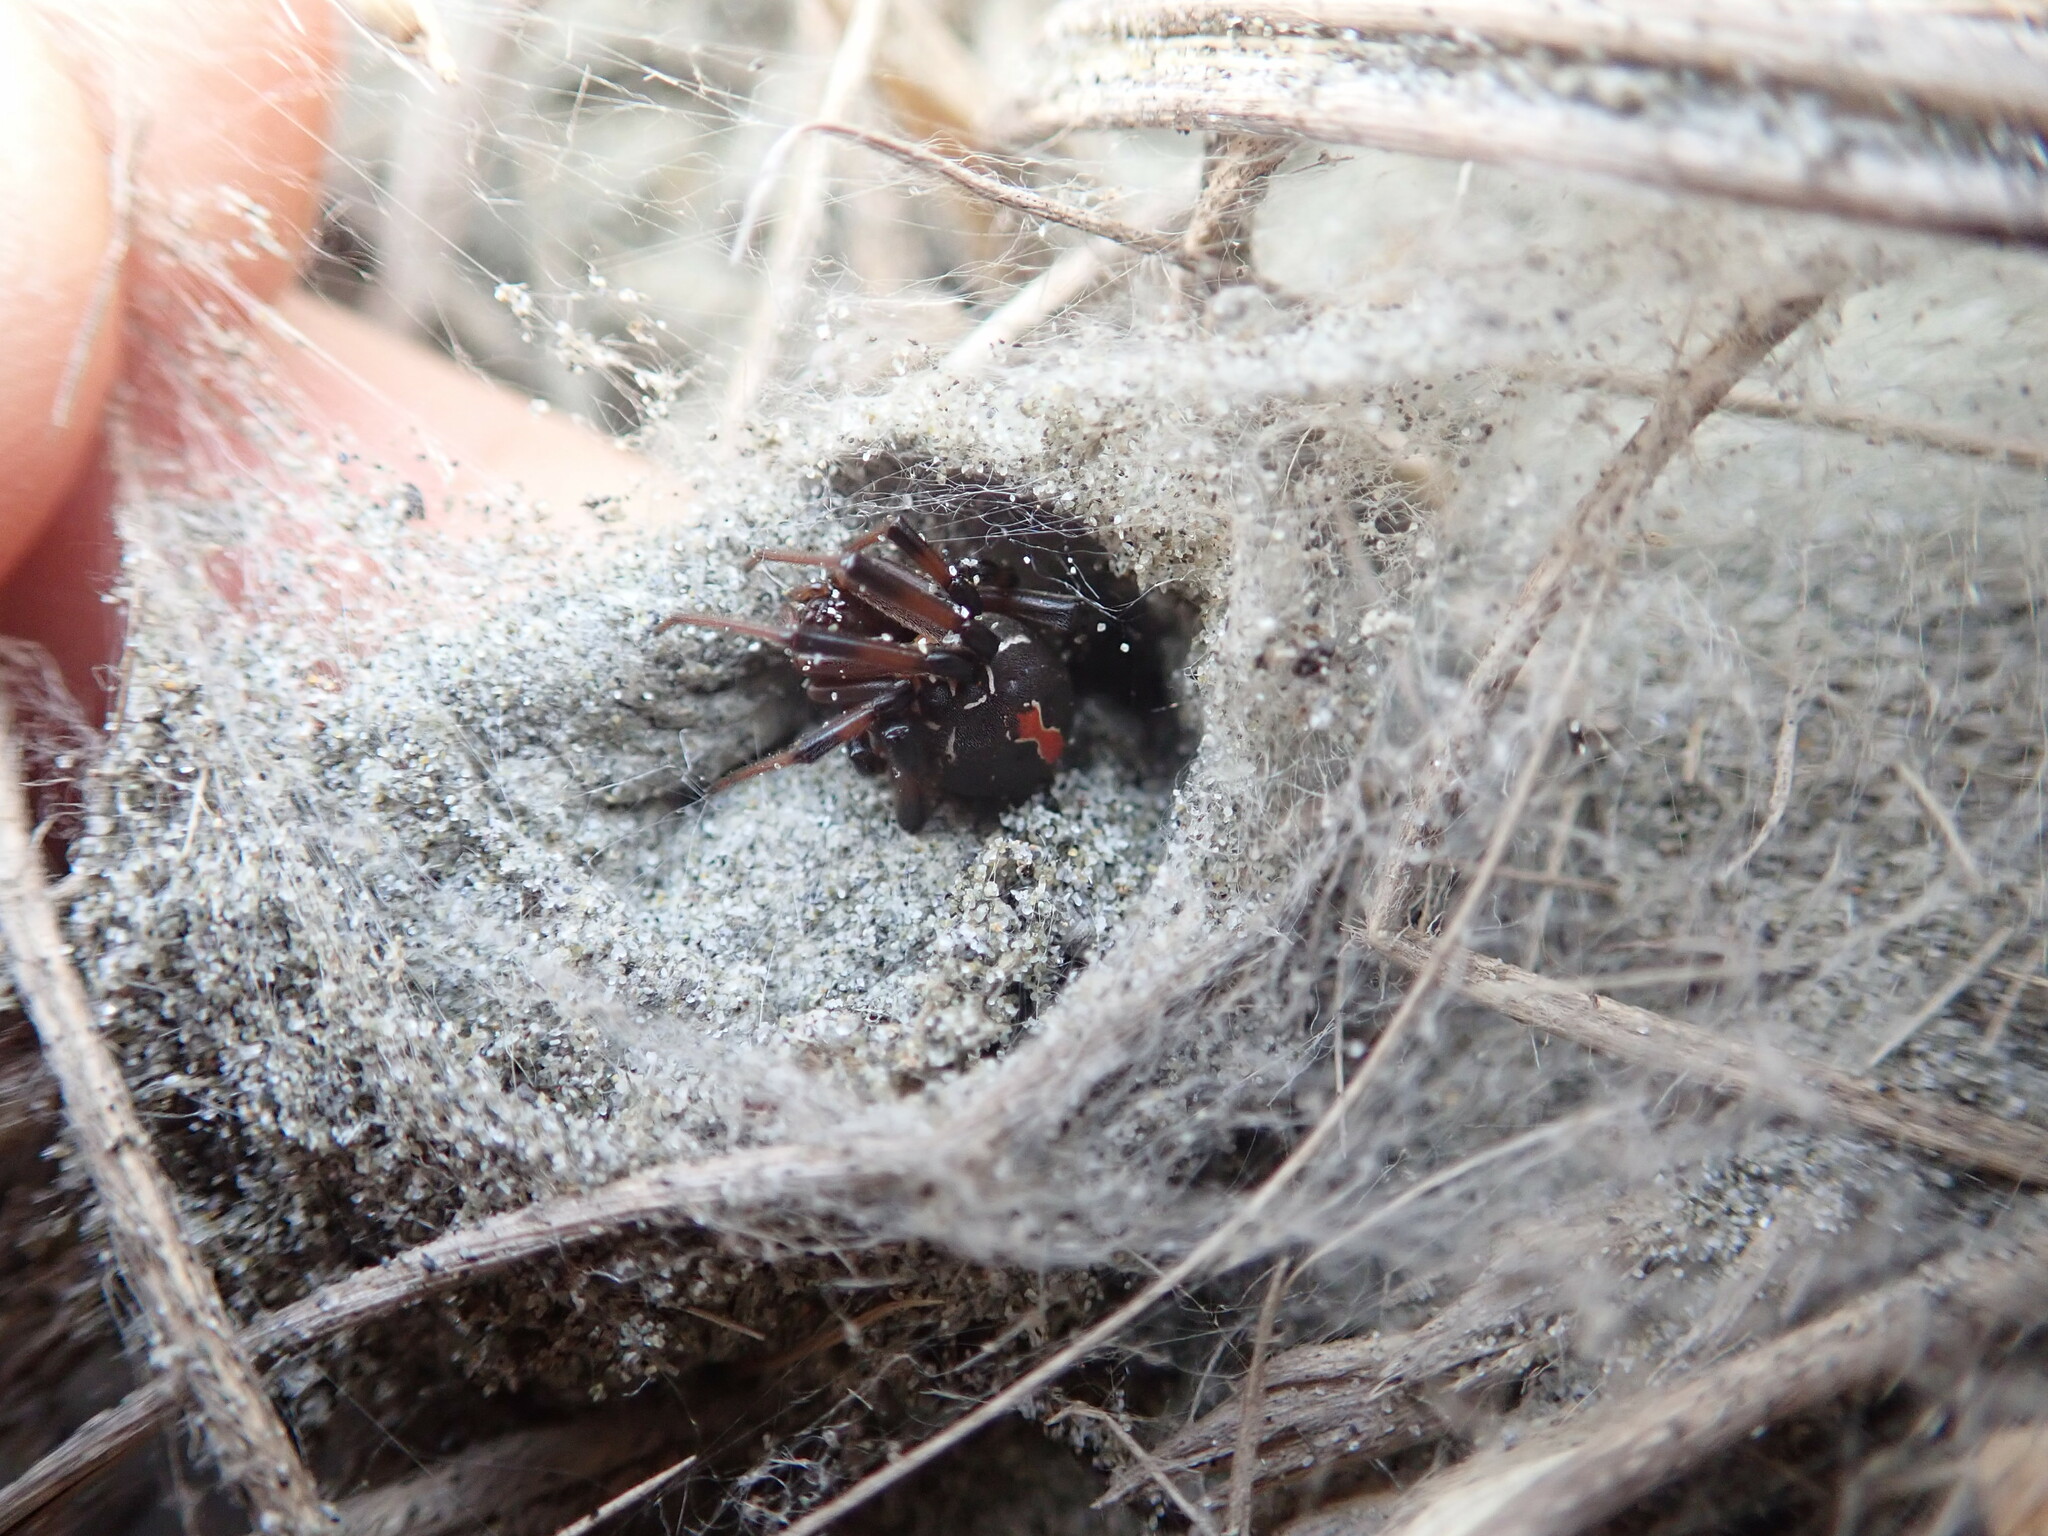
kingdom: Animalia
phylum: Arthropoda
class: Arachnida
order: Araneae
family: Theridiidae
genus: Latrodectus
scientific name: Latrodectus katipo
